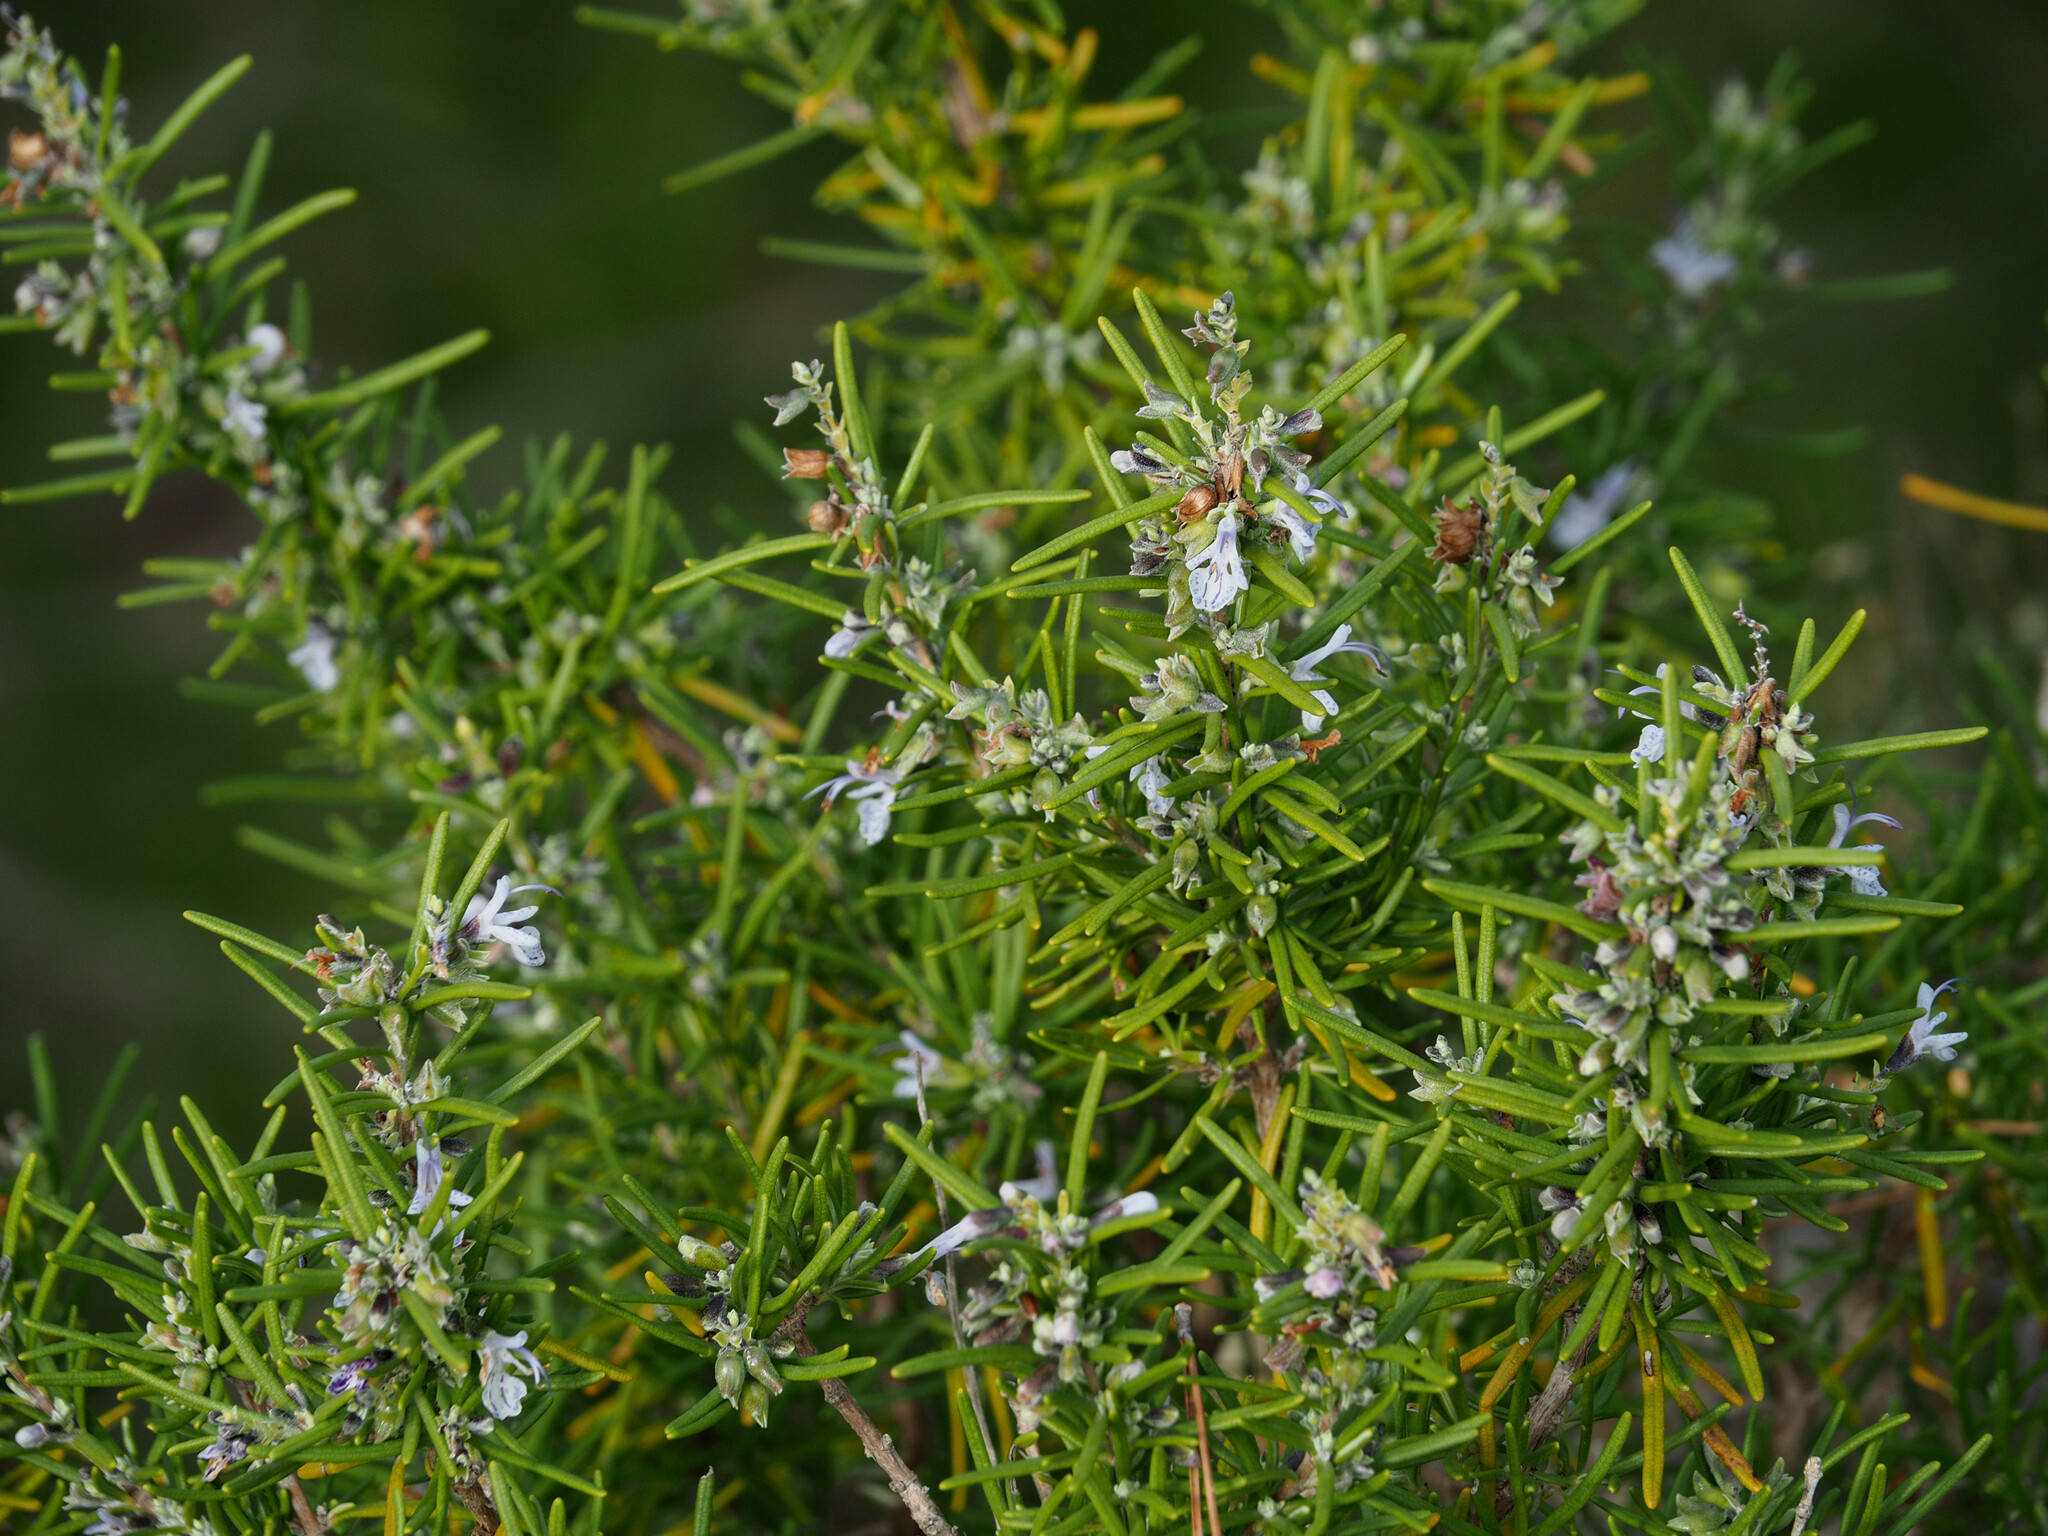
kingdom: Plantae
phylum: Tracheophyta
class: Magnoliopsida
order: Lamiales
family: Lamiaceae
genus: Salvia
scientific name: Salvia rosmarinus
